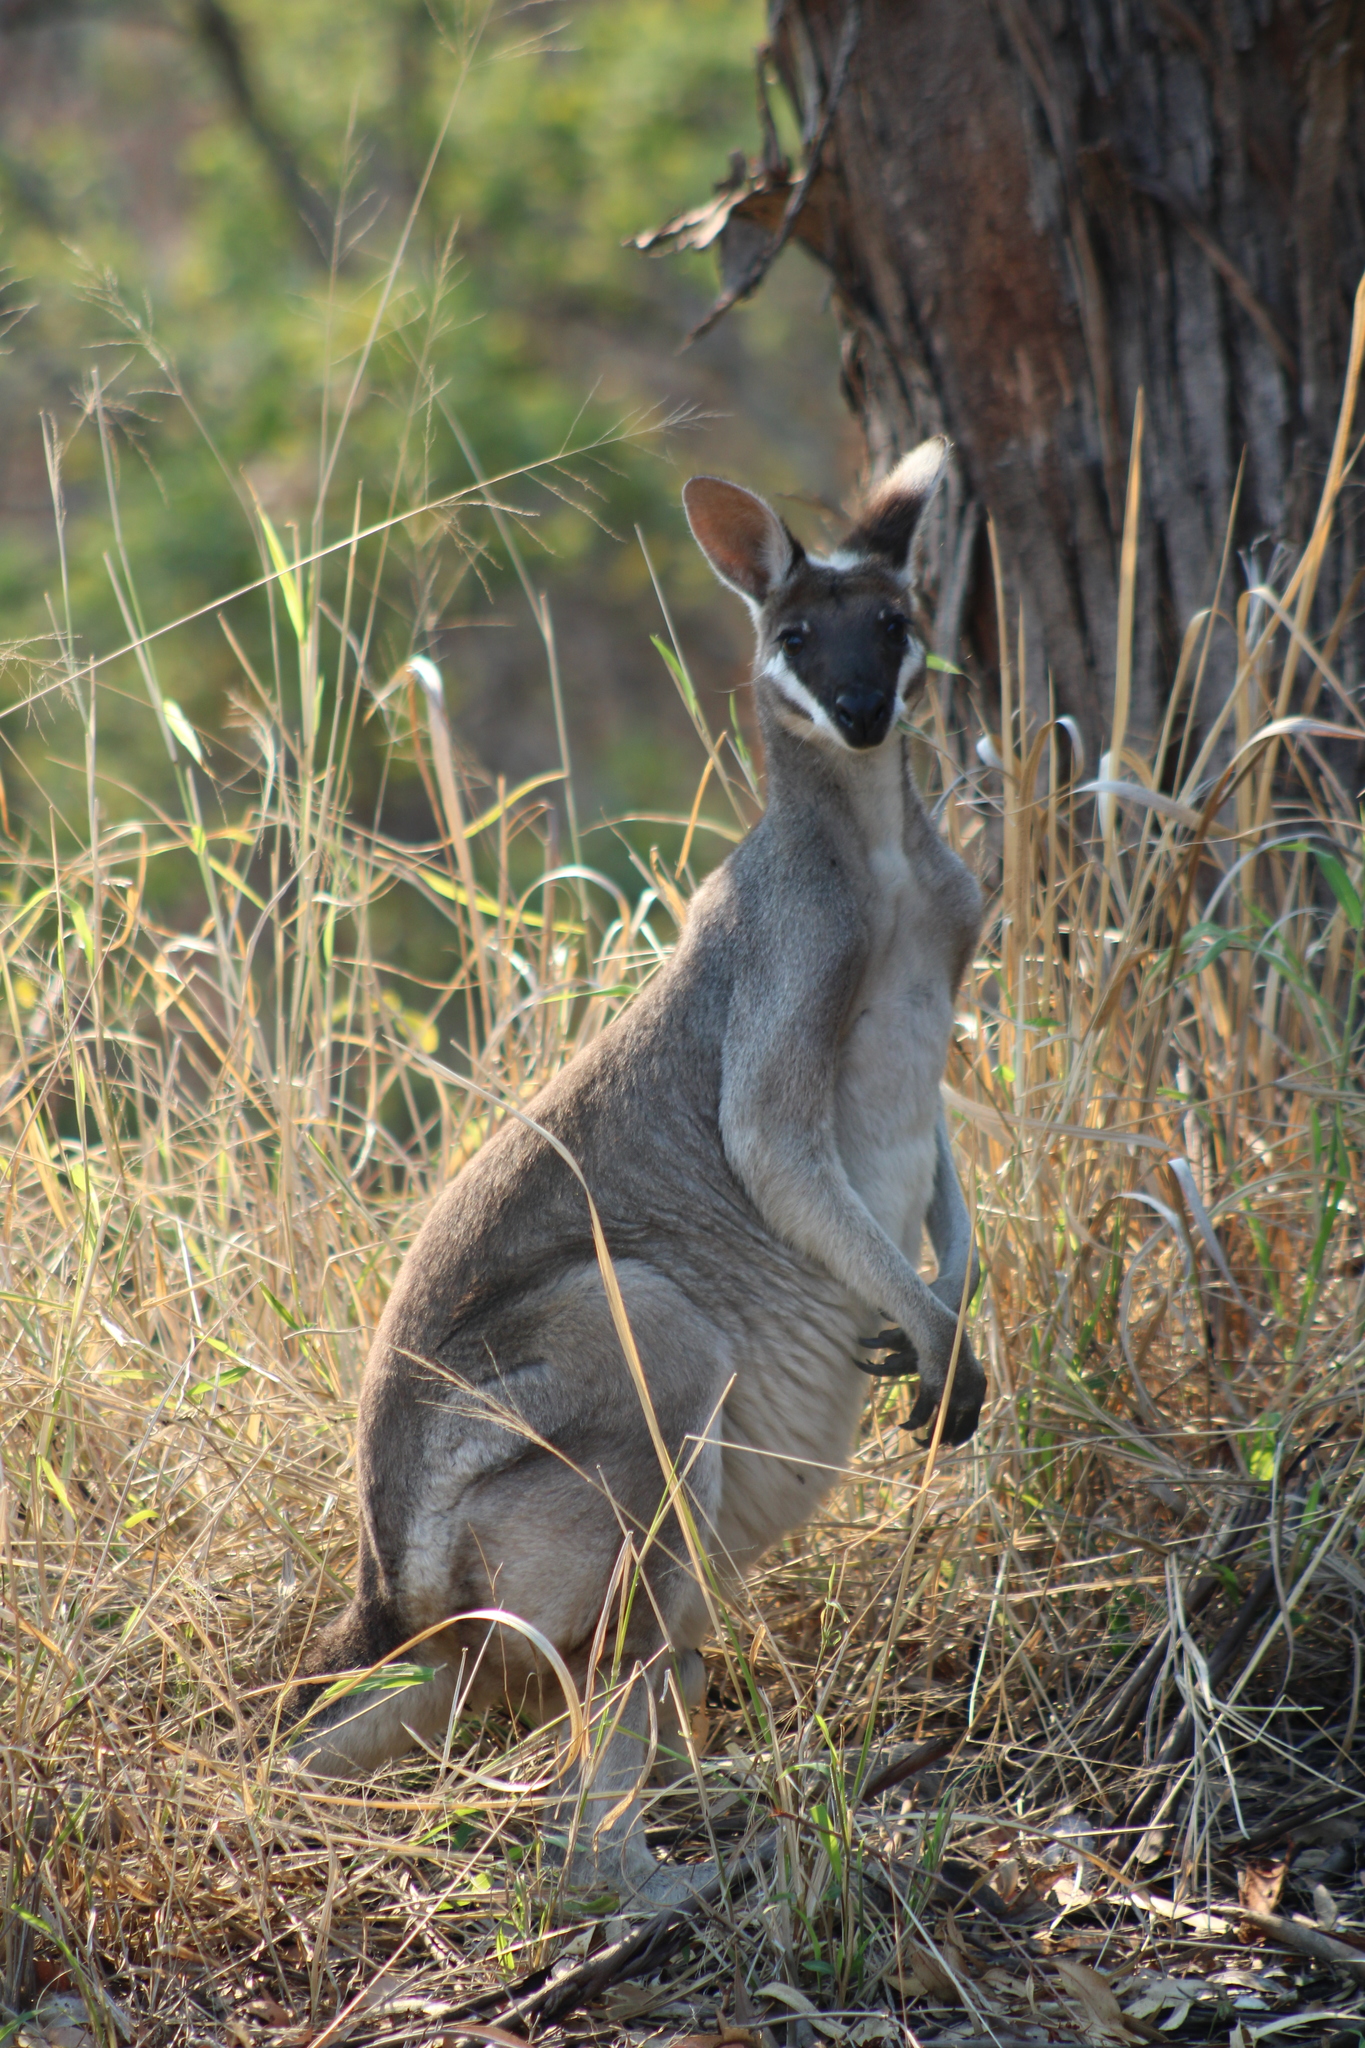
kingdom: Animalia
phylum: Chordata
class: Mammalia
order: Diprotodontia
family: Macropodidae
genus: Notamacropus
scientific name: Notamacropus parryi
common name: Whip-tailed wallaby
